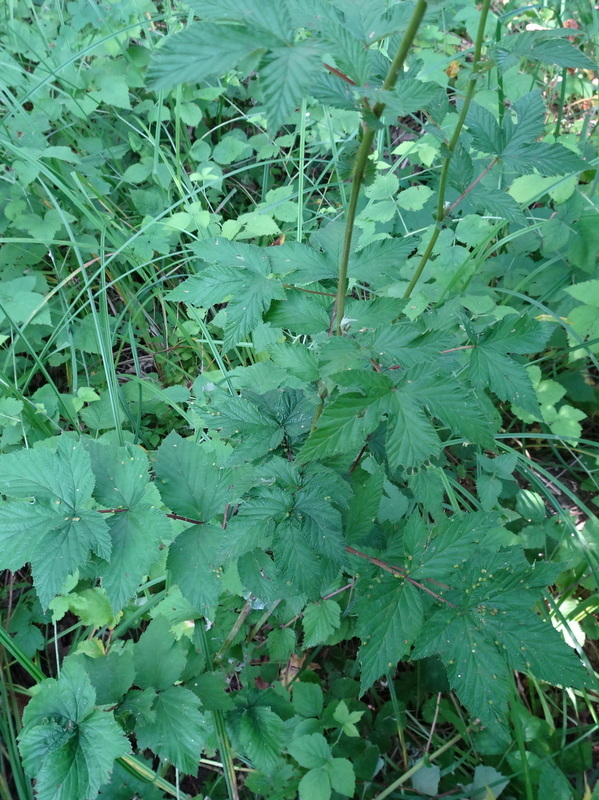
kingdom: Plantae
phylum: Tracheophyta
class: Magnoliopsida
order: Rosales
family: Rosaceae
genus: Filipendula
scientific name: Filipendula ulmaria
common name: Meadowsweet
